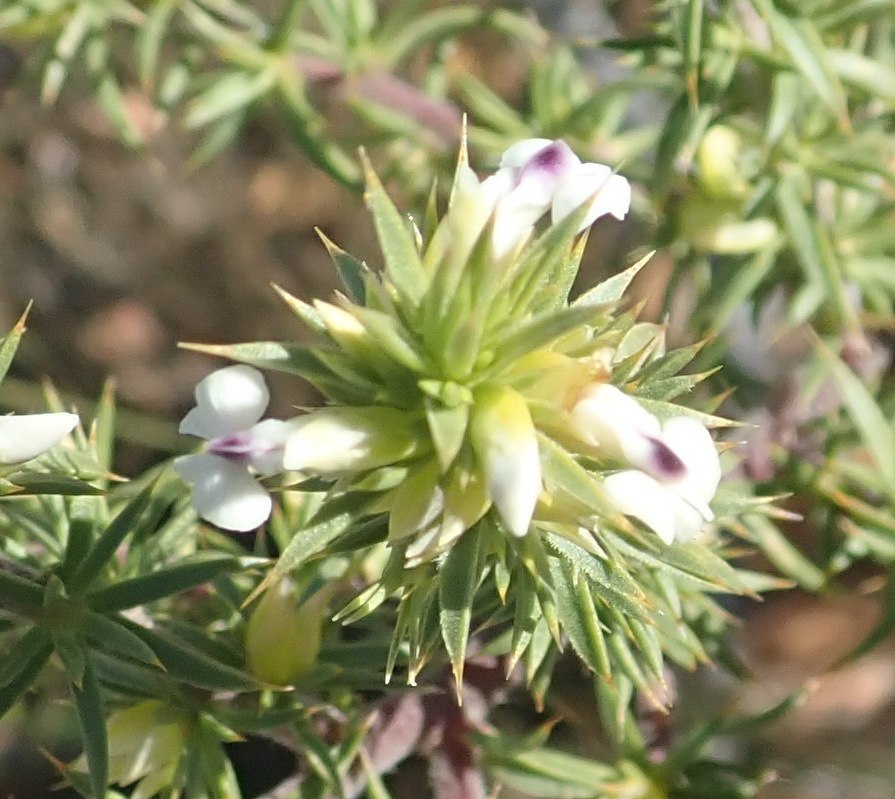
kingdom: Plantae
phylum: Tracheophyta
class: Magnoliopsida
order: Fabales
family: Polygalaceae
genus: Muraltia
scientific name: Muraltia ericifolia
